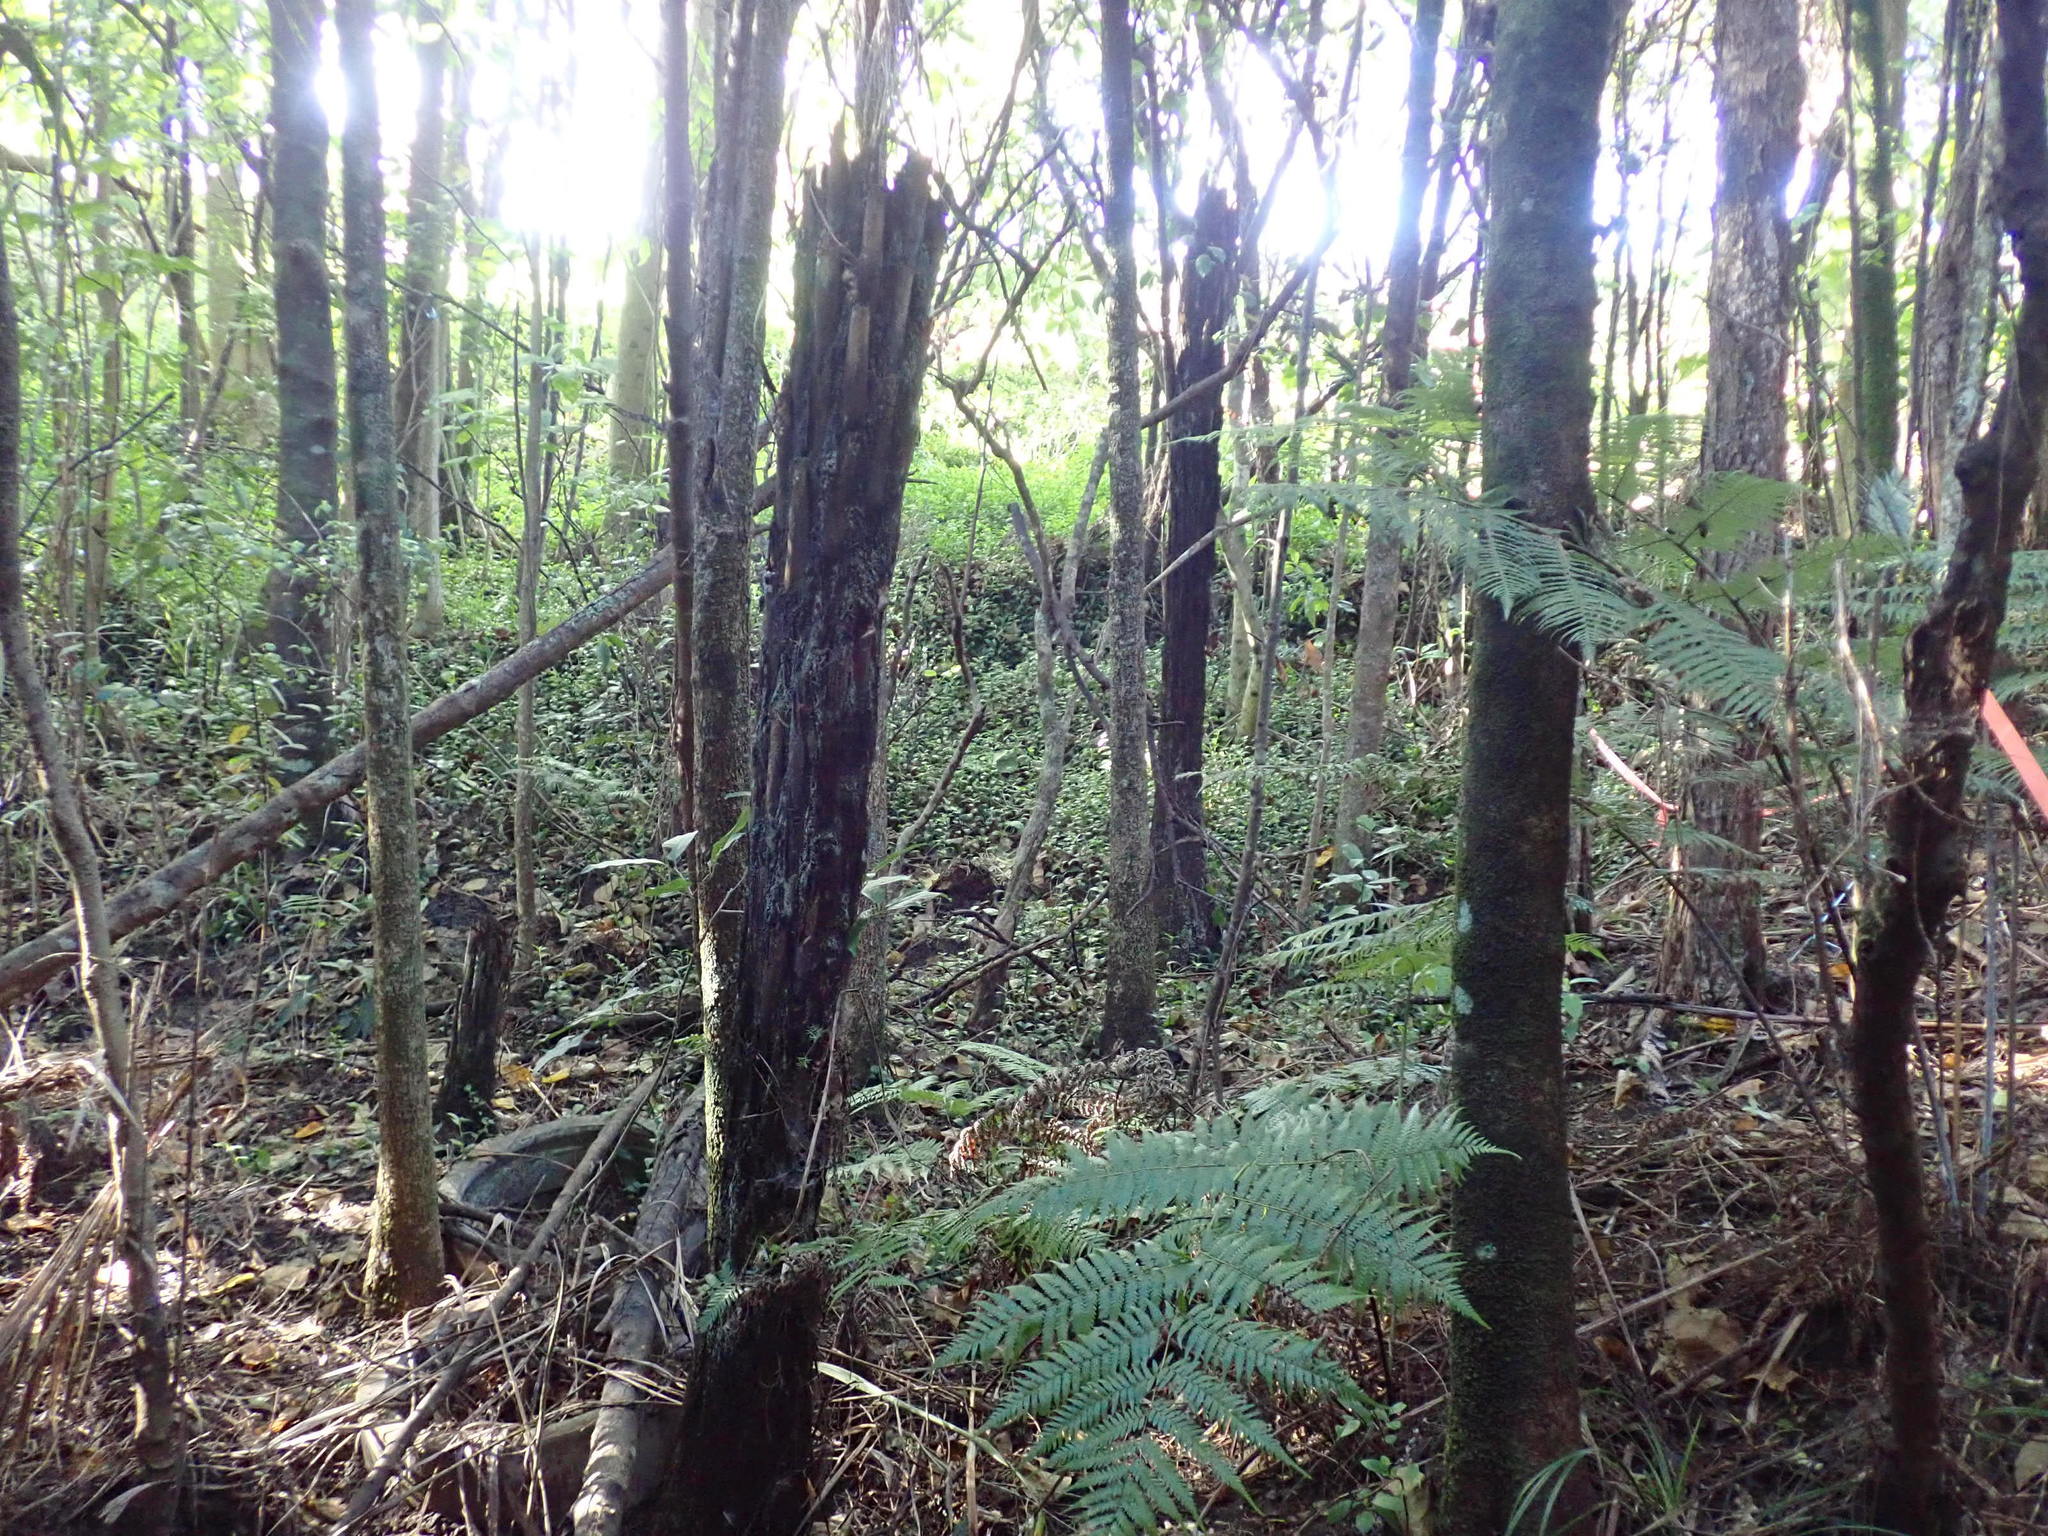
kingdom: Plantae
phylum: Tracheophyta
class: Polypodiopsida
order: Cyatheales
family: Cyatheaceae
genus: Alsophila
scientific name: Alsophila dealbata
